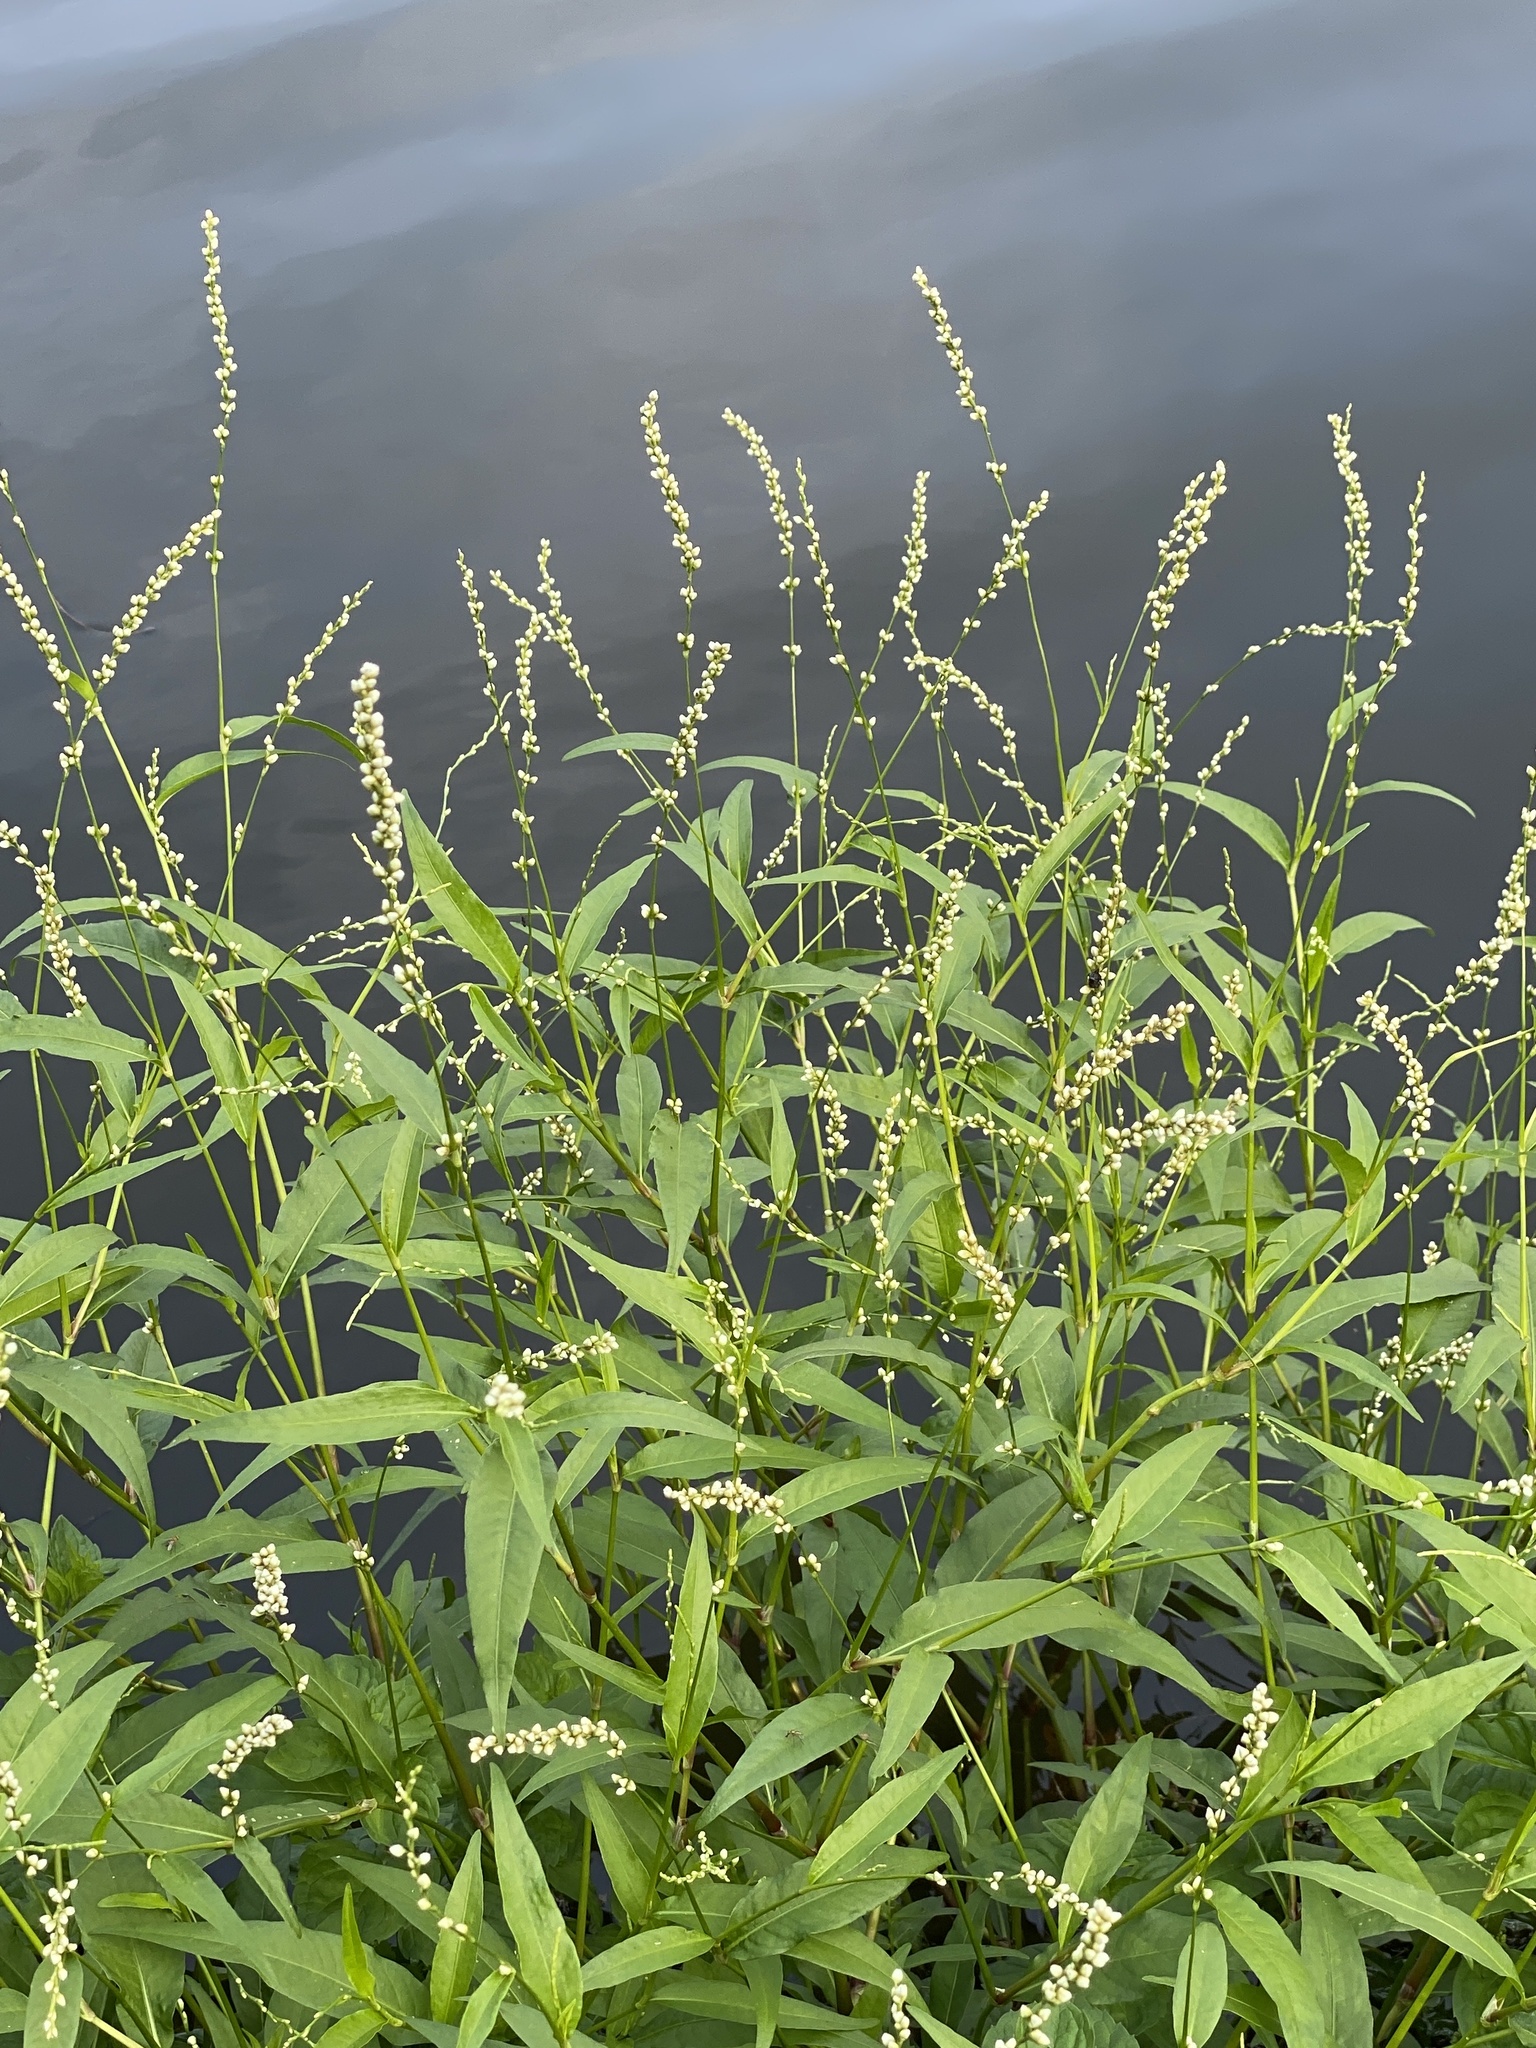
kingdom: Plantae
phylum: Tracheophyta
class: Magnoliopsida
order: Caryophyllales
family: Polygonaceae
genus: Persicaria
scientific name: Persicaria punctata
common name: Dotted smartweed
